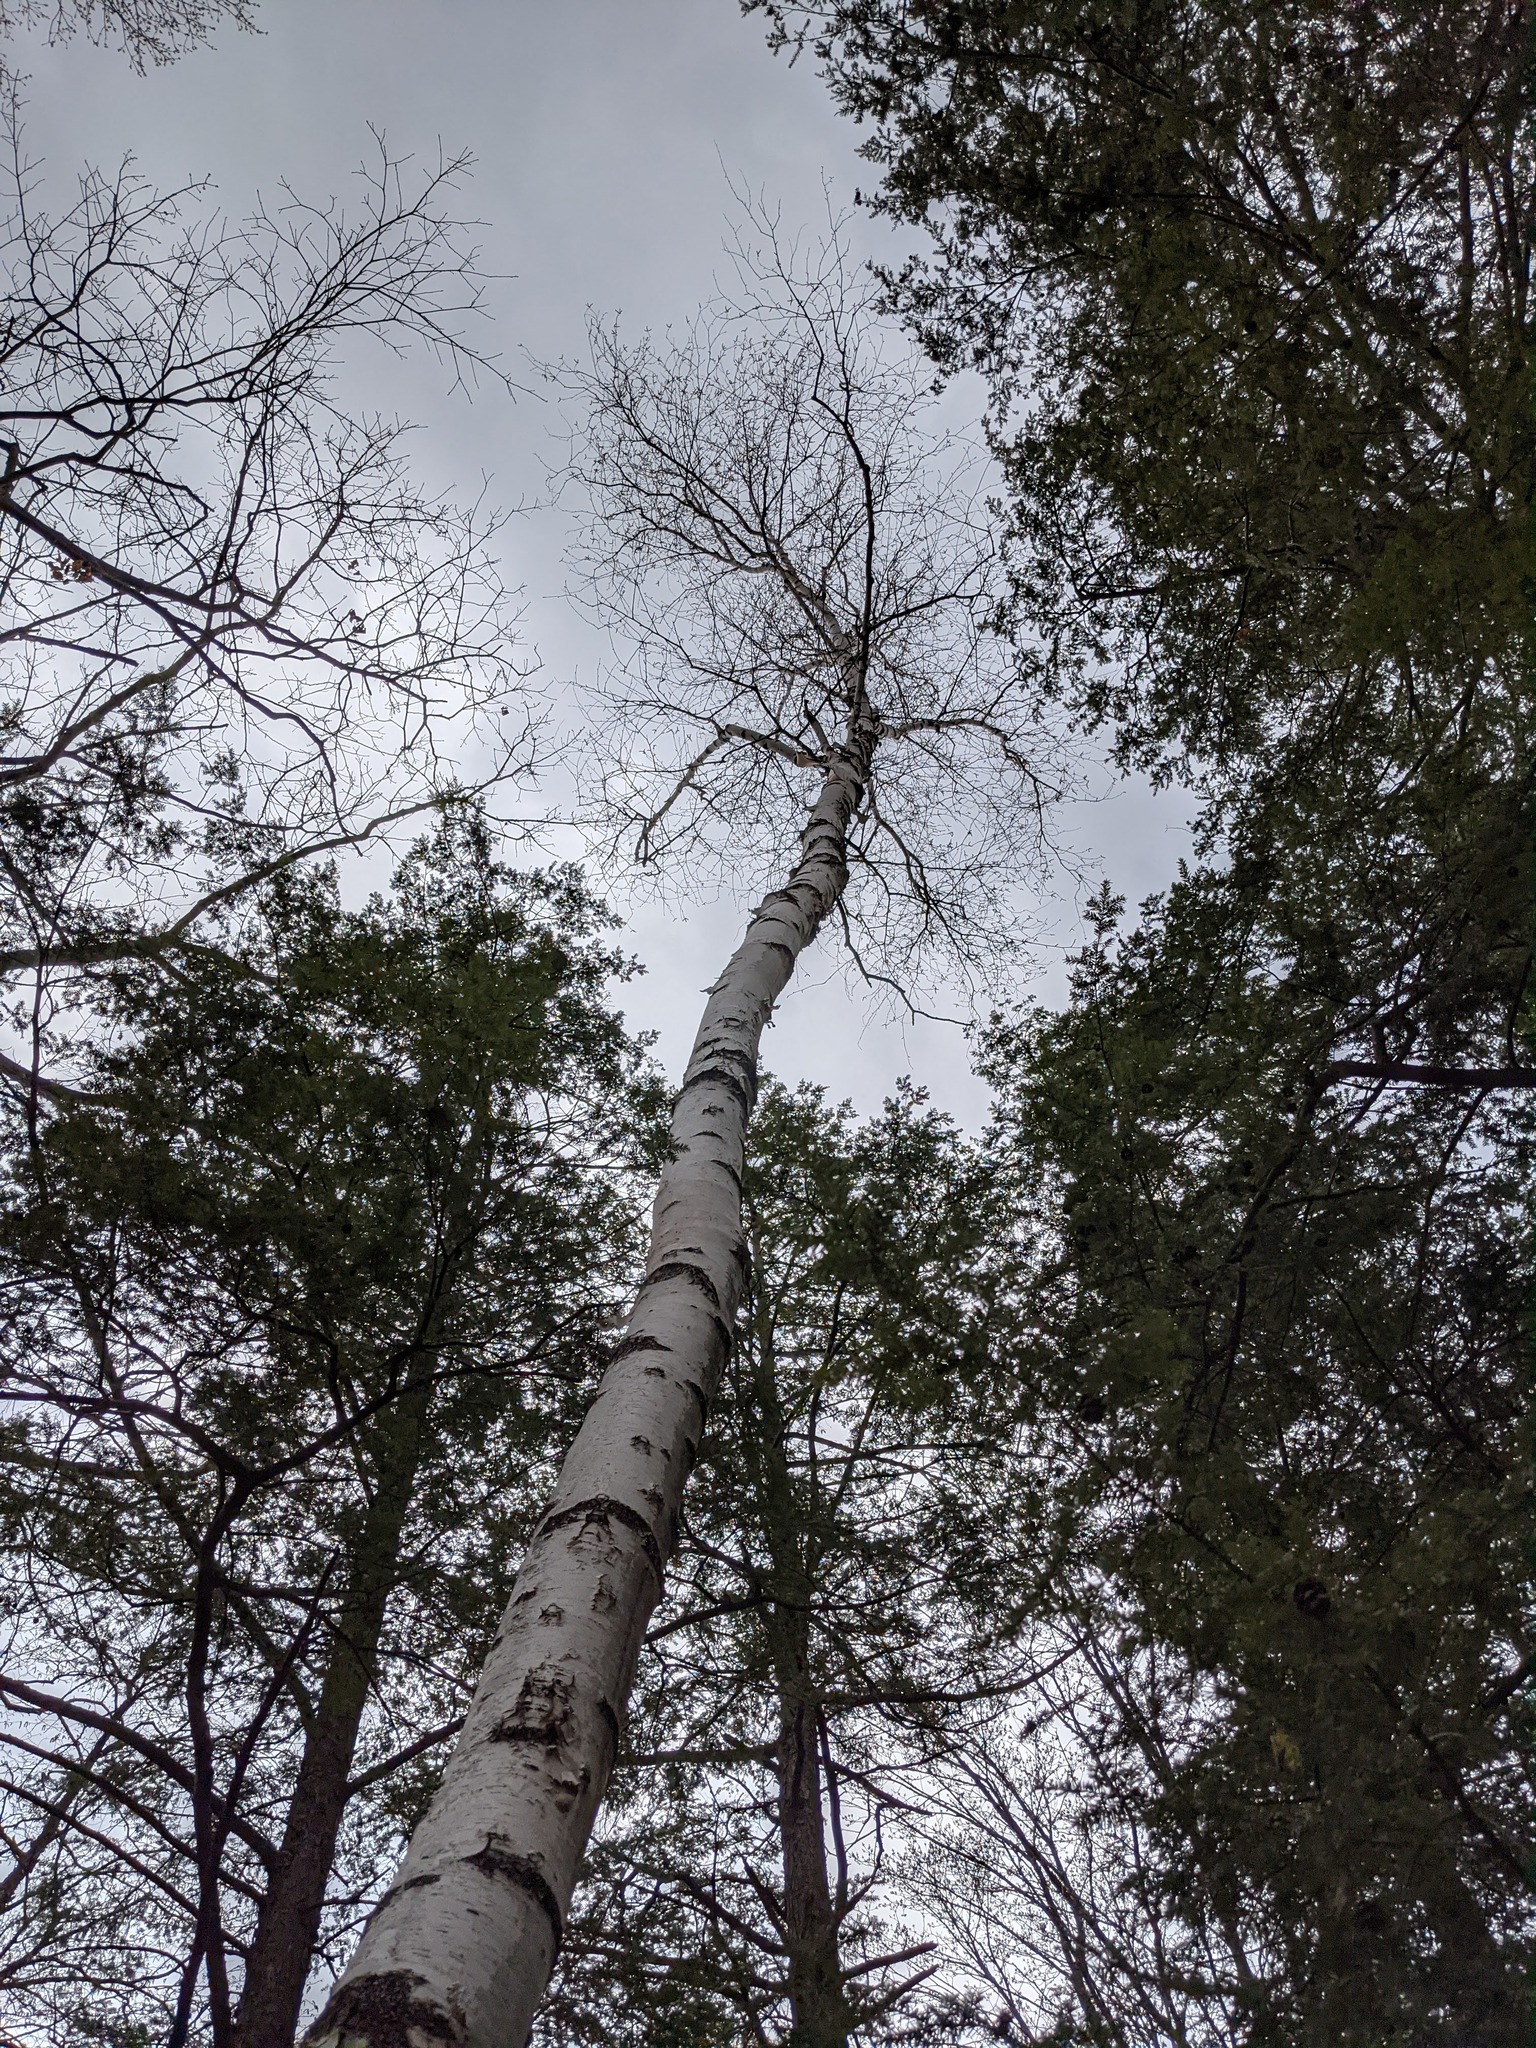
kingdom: Plantae
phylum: Tracheophyta
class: Magnoliopsida
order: Fagales
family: Betulaceae
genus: Betula
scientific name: Betula papyrifera
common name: Paper birch
